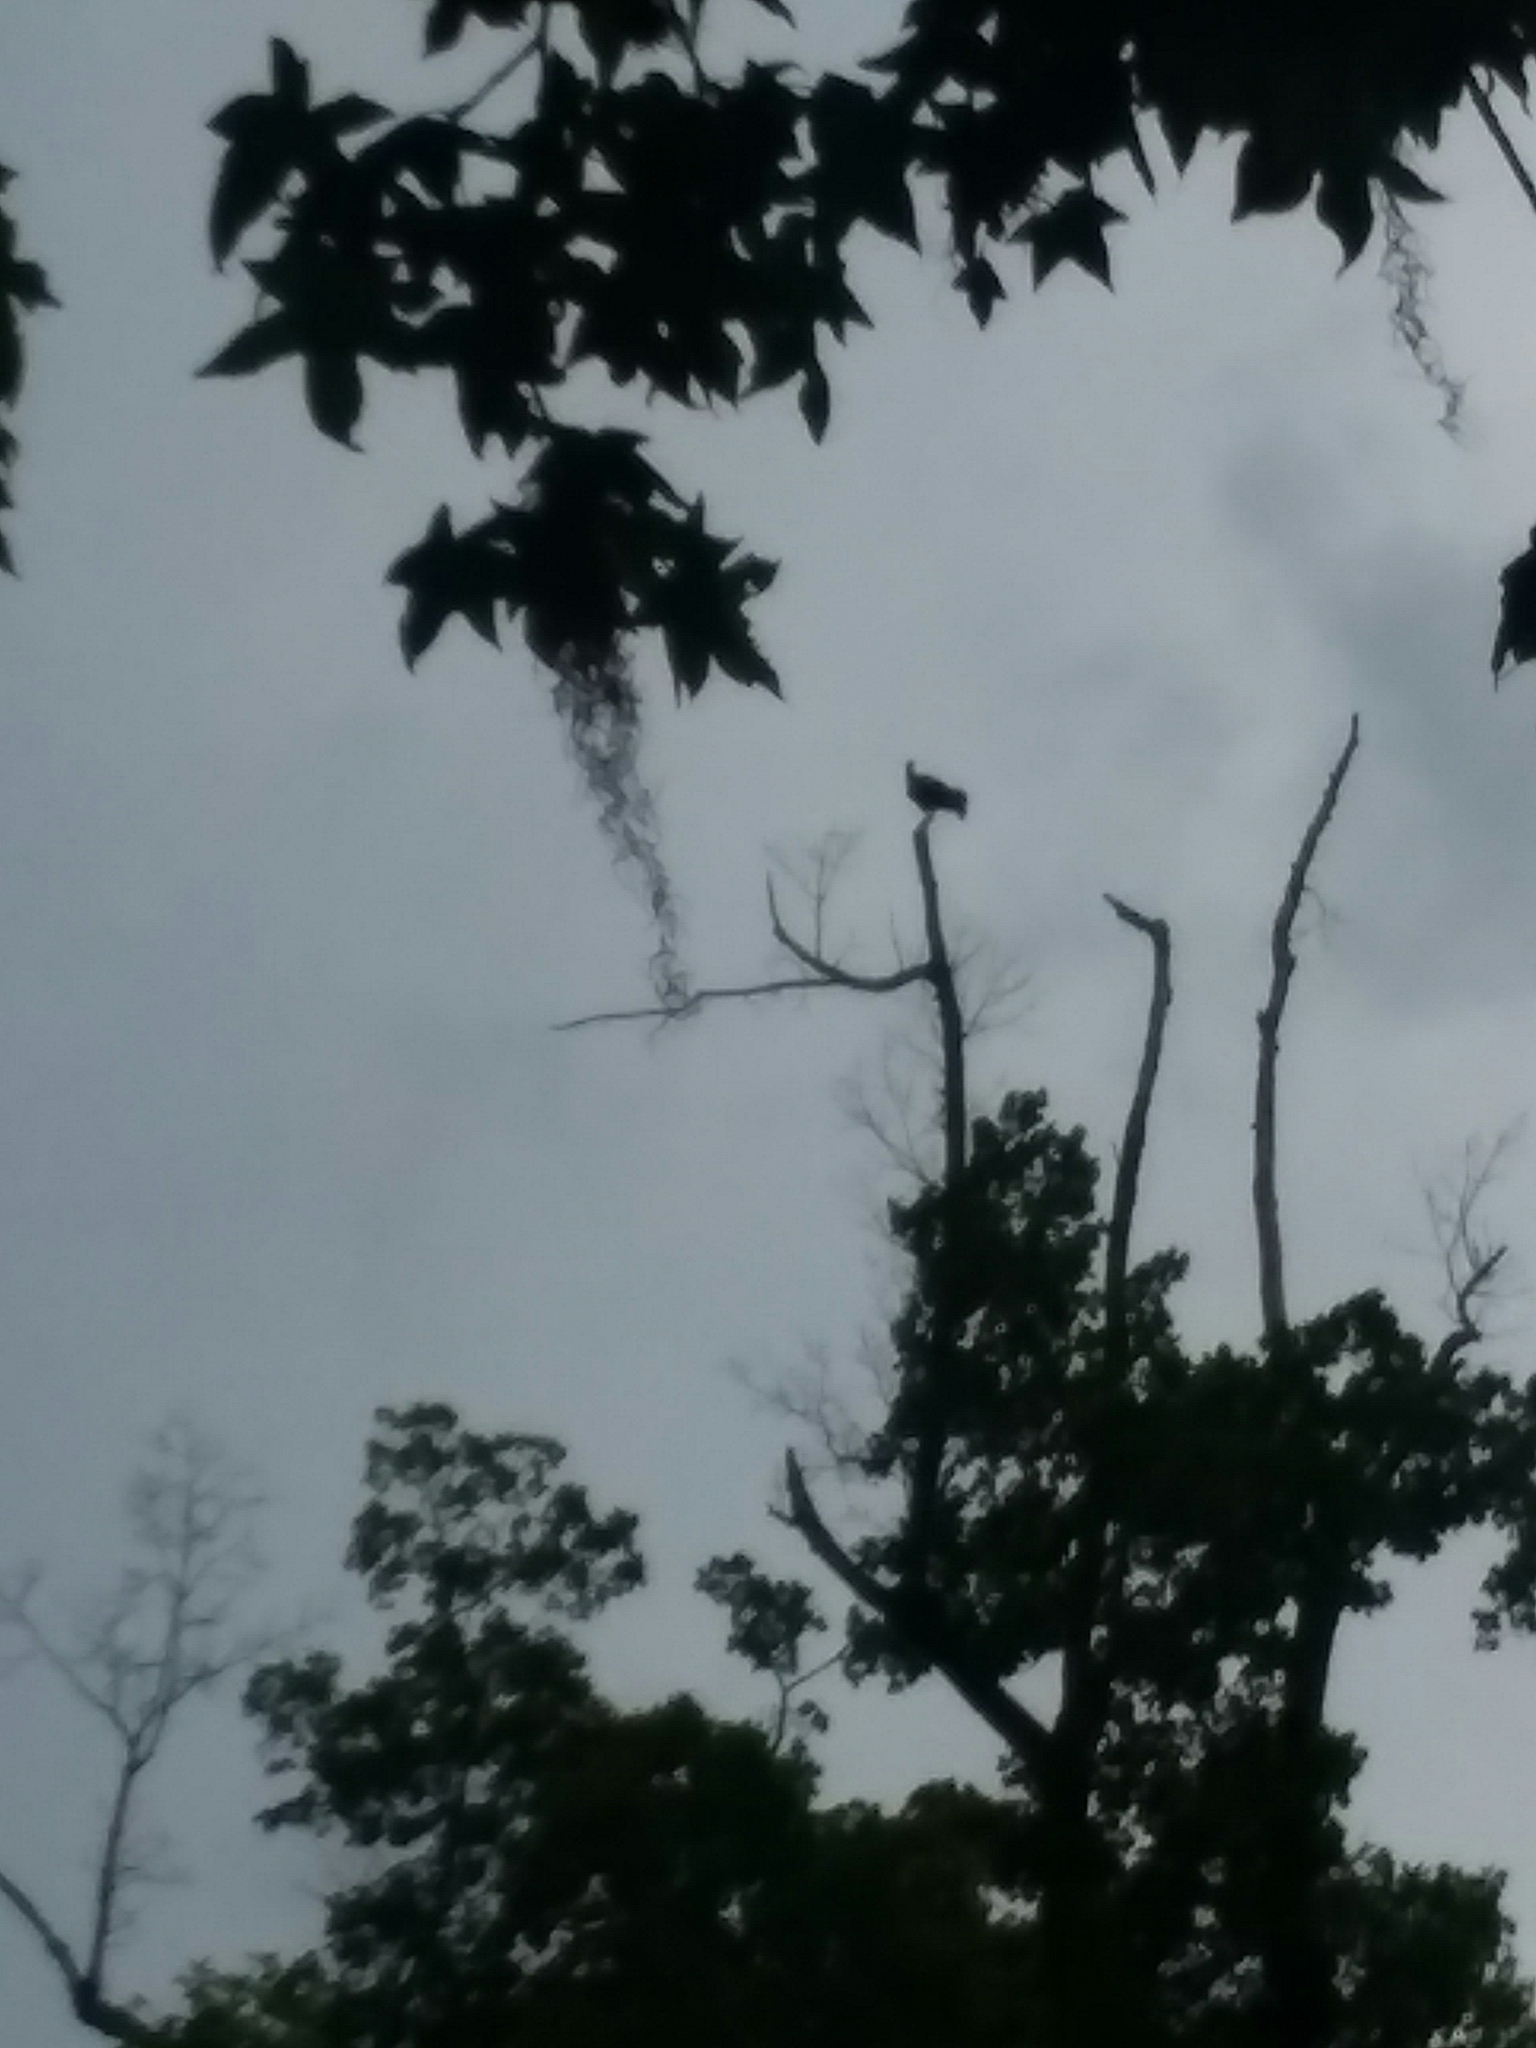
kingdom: Animalia
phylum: Chordata
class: Aves
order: Accipitriformes
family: Cathartidae
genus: Coragyps
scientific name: Coragyps atratus
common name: Black vulture
